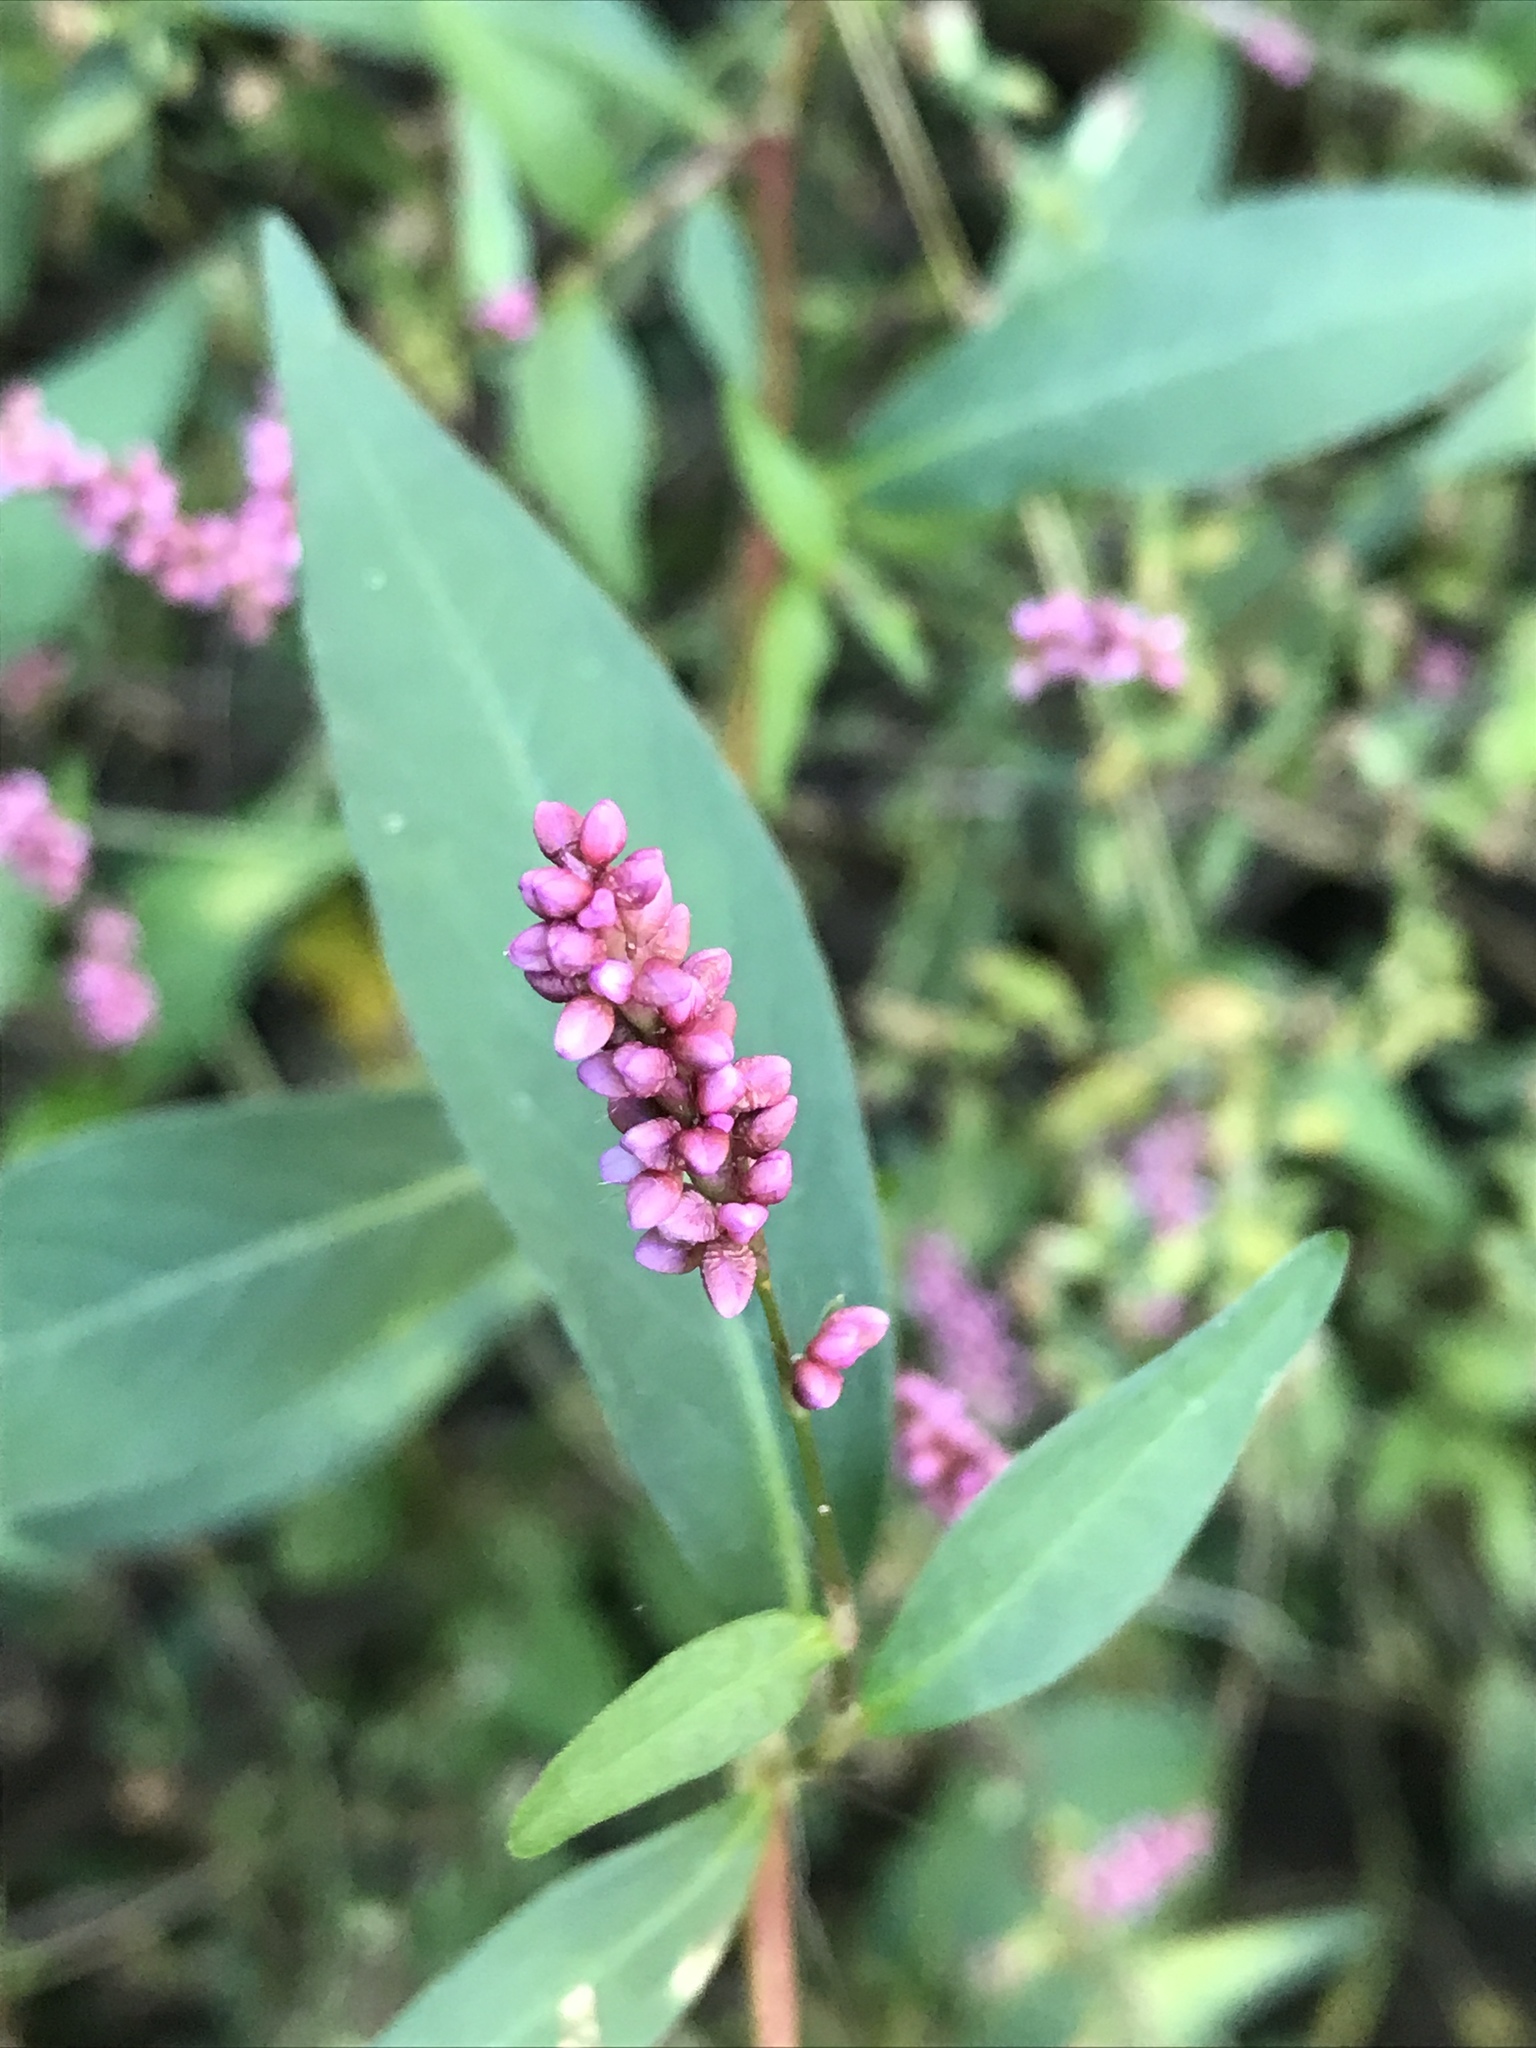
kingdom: Plantae
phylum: Tracheophyta
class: Magnoliopsida
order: Caryophyllales
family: Polygonaceae
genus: Persicaria
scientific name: Persicaria longiseta
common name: Bristly lady's-thumb
